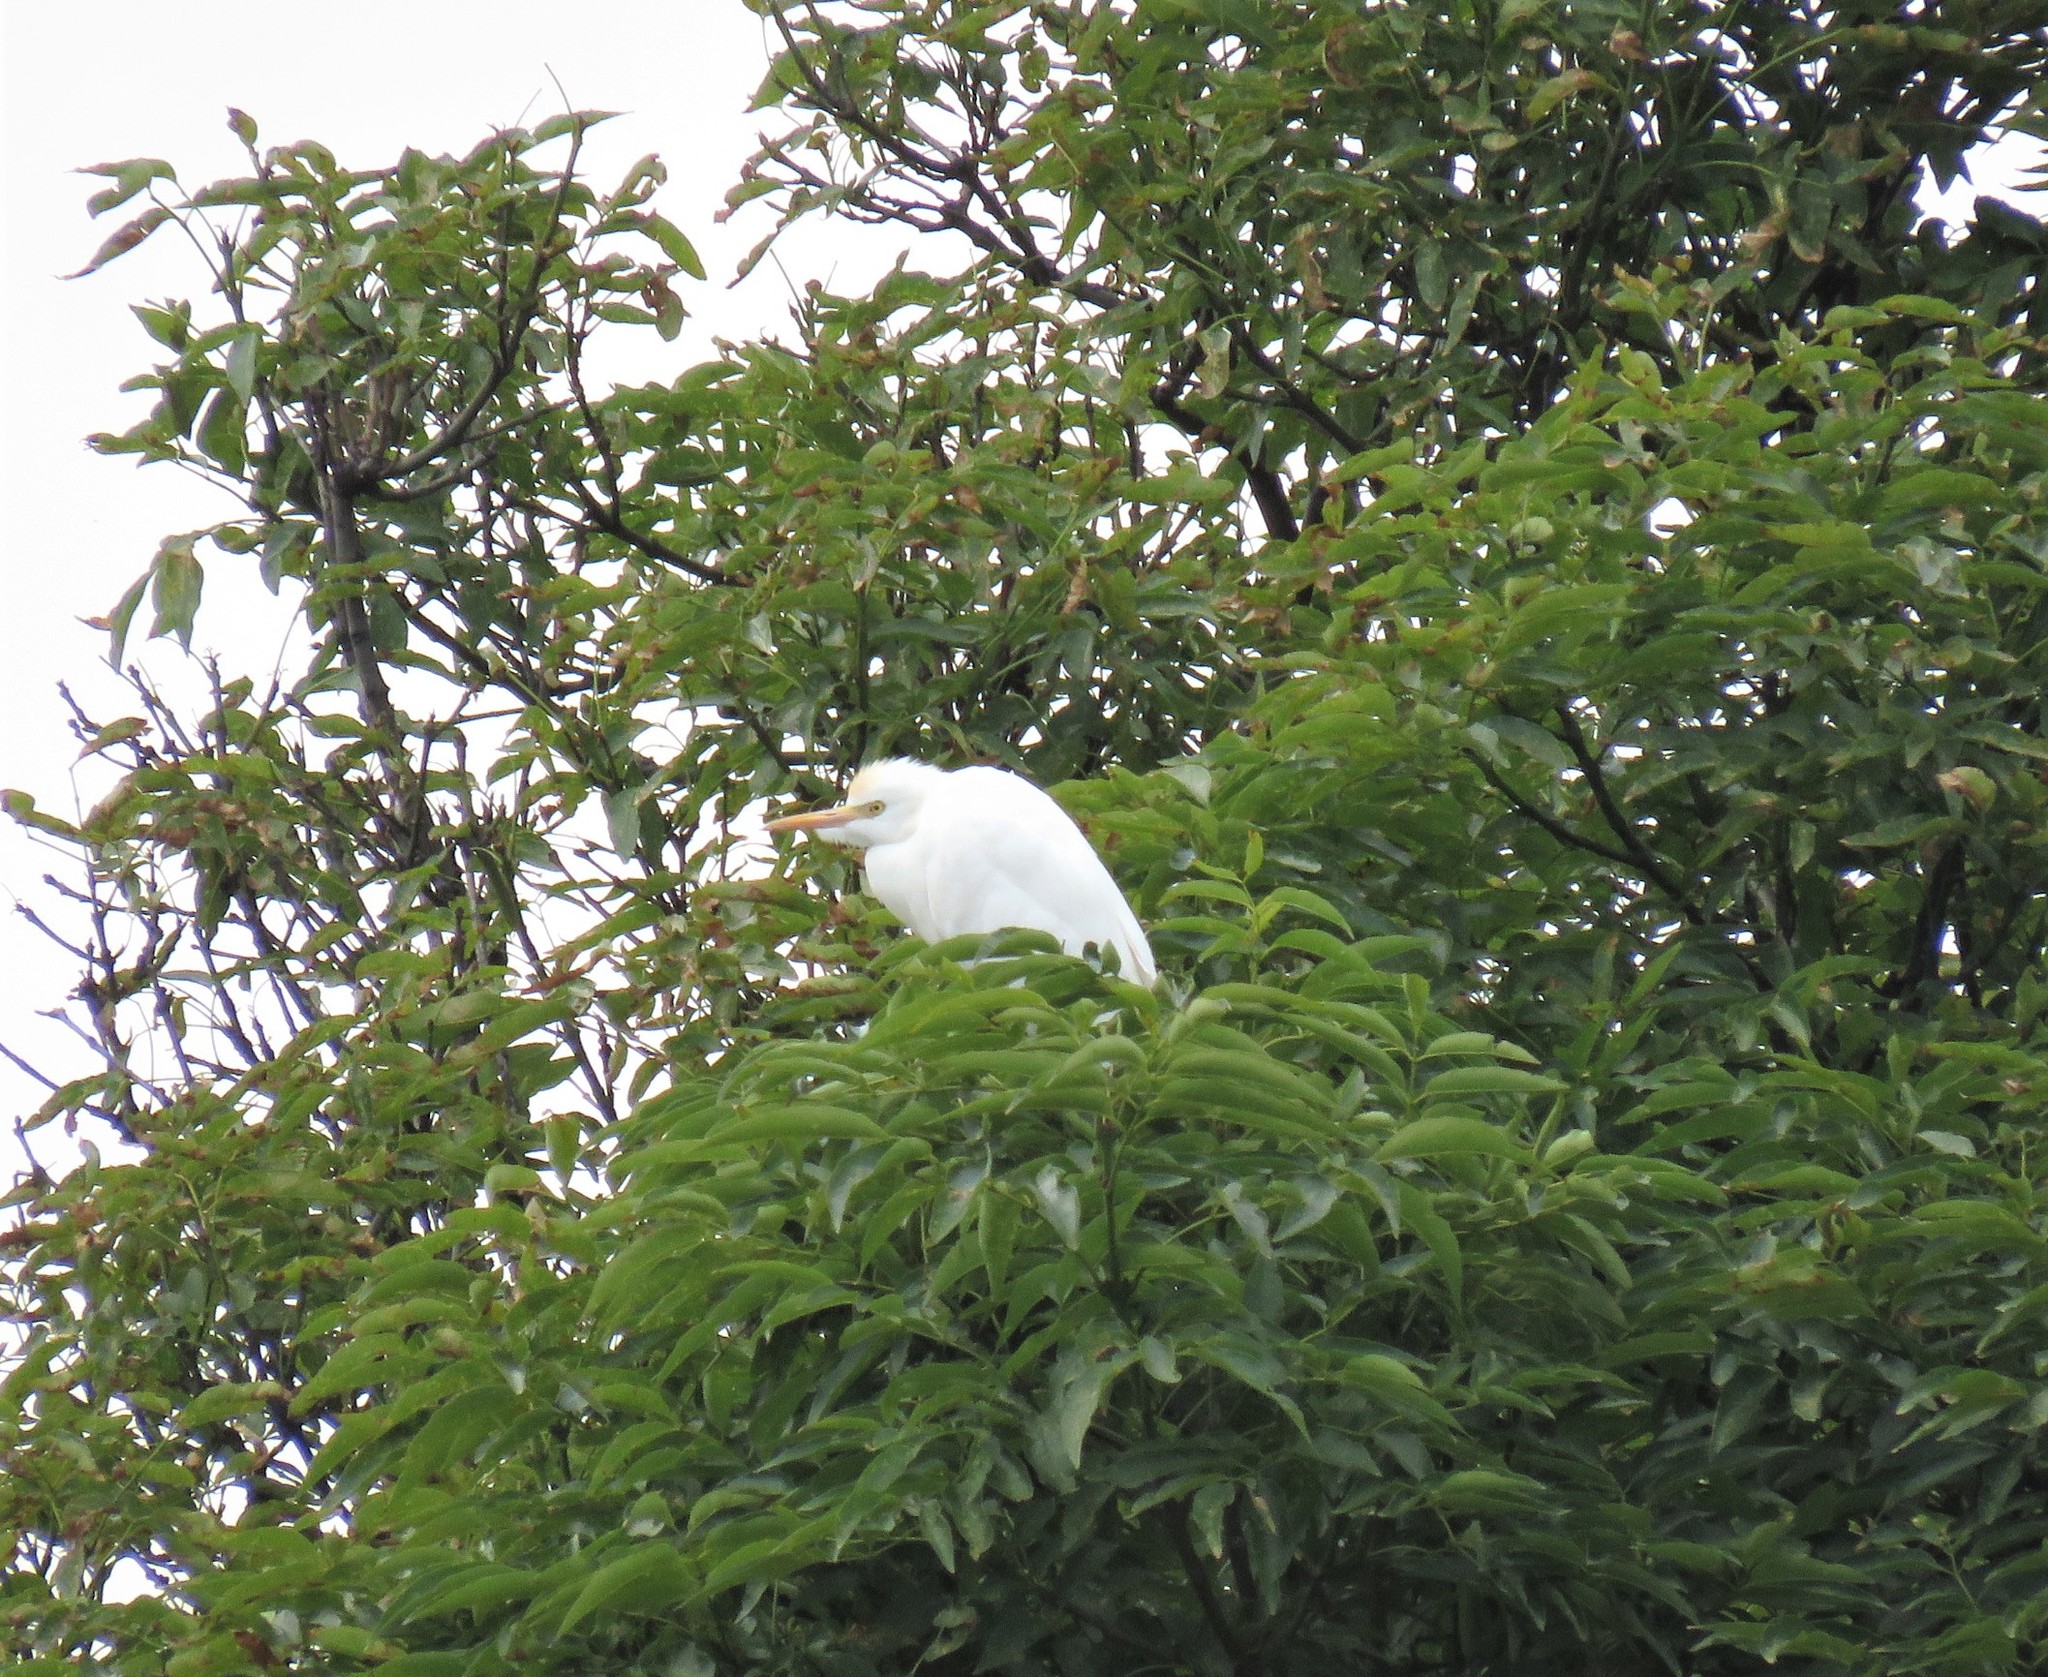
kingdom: Animalia
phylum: Chordata
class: Aves
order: Pelecaniformes
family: Ardeidae
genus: Bubulcus
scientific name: Bubulcus ibis
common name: Cattle egret
